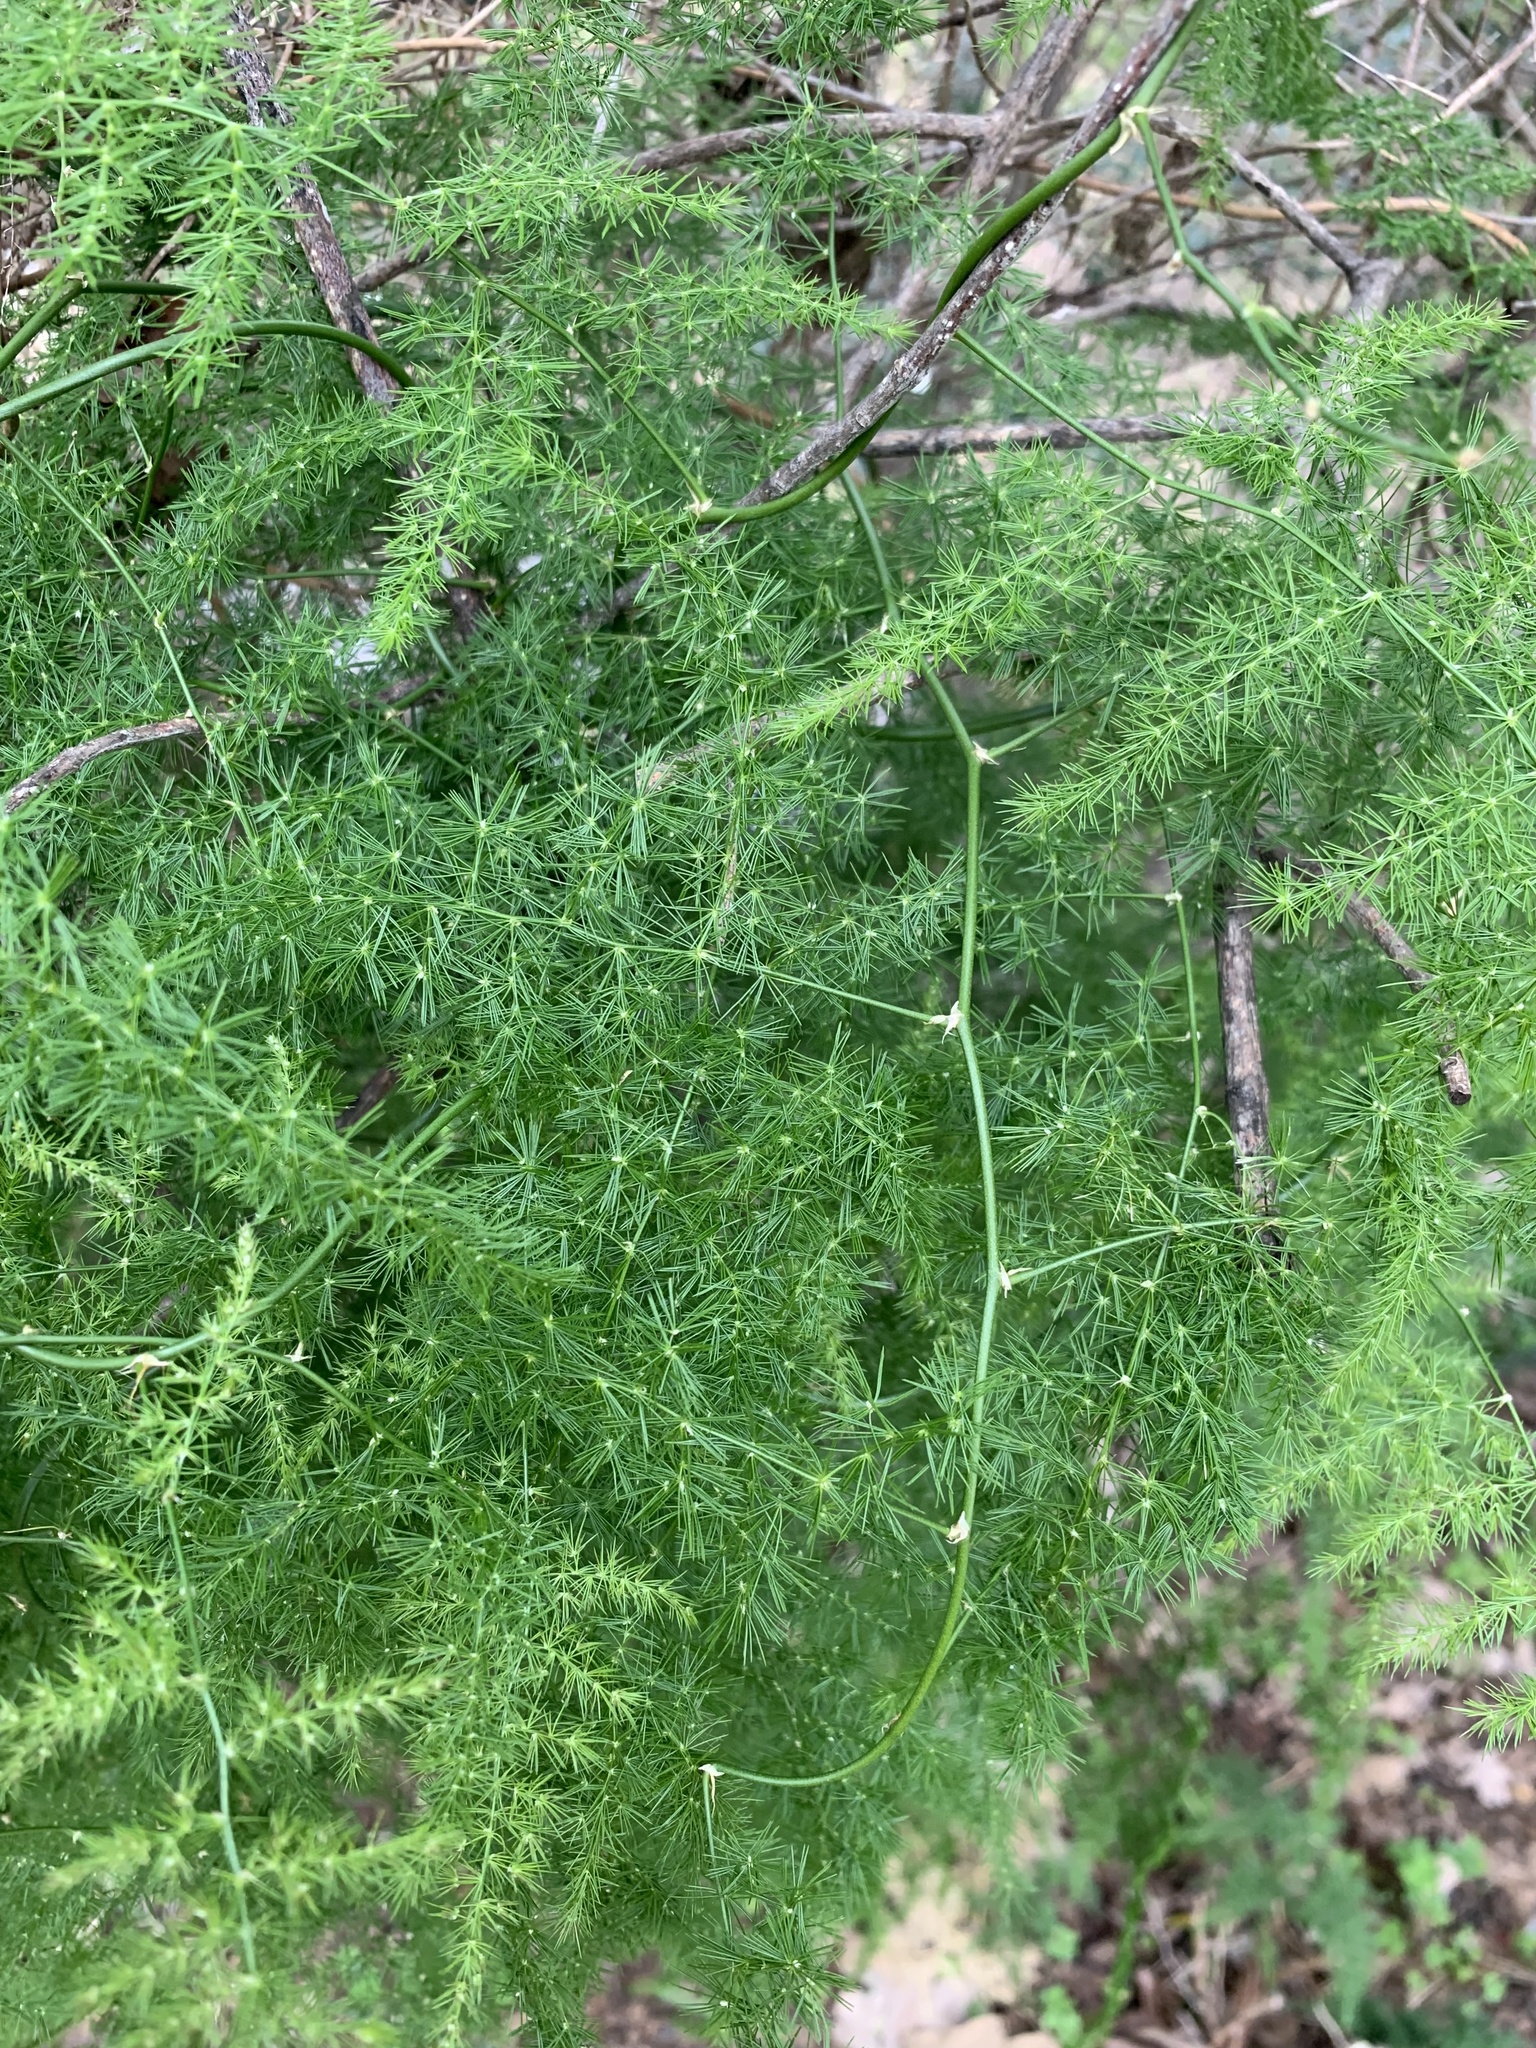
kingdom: Plantae
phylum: Tracheophyta
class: Liliopsida
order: Asparagales
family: Asparagaceae
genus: Asparagus
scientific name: Asparagus setaceus
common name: Common asparagus fern
